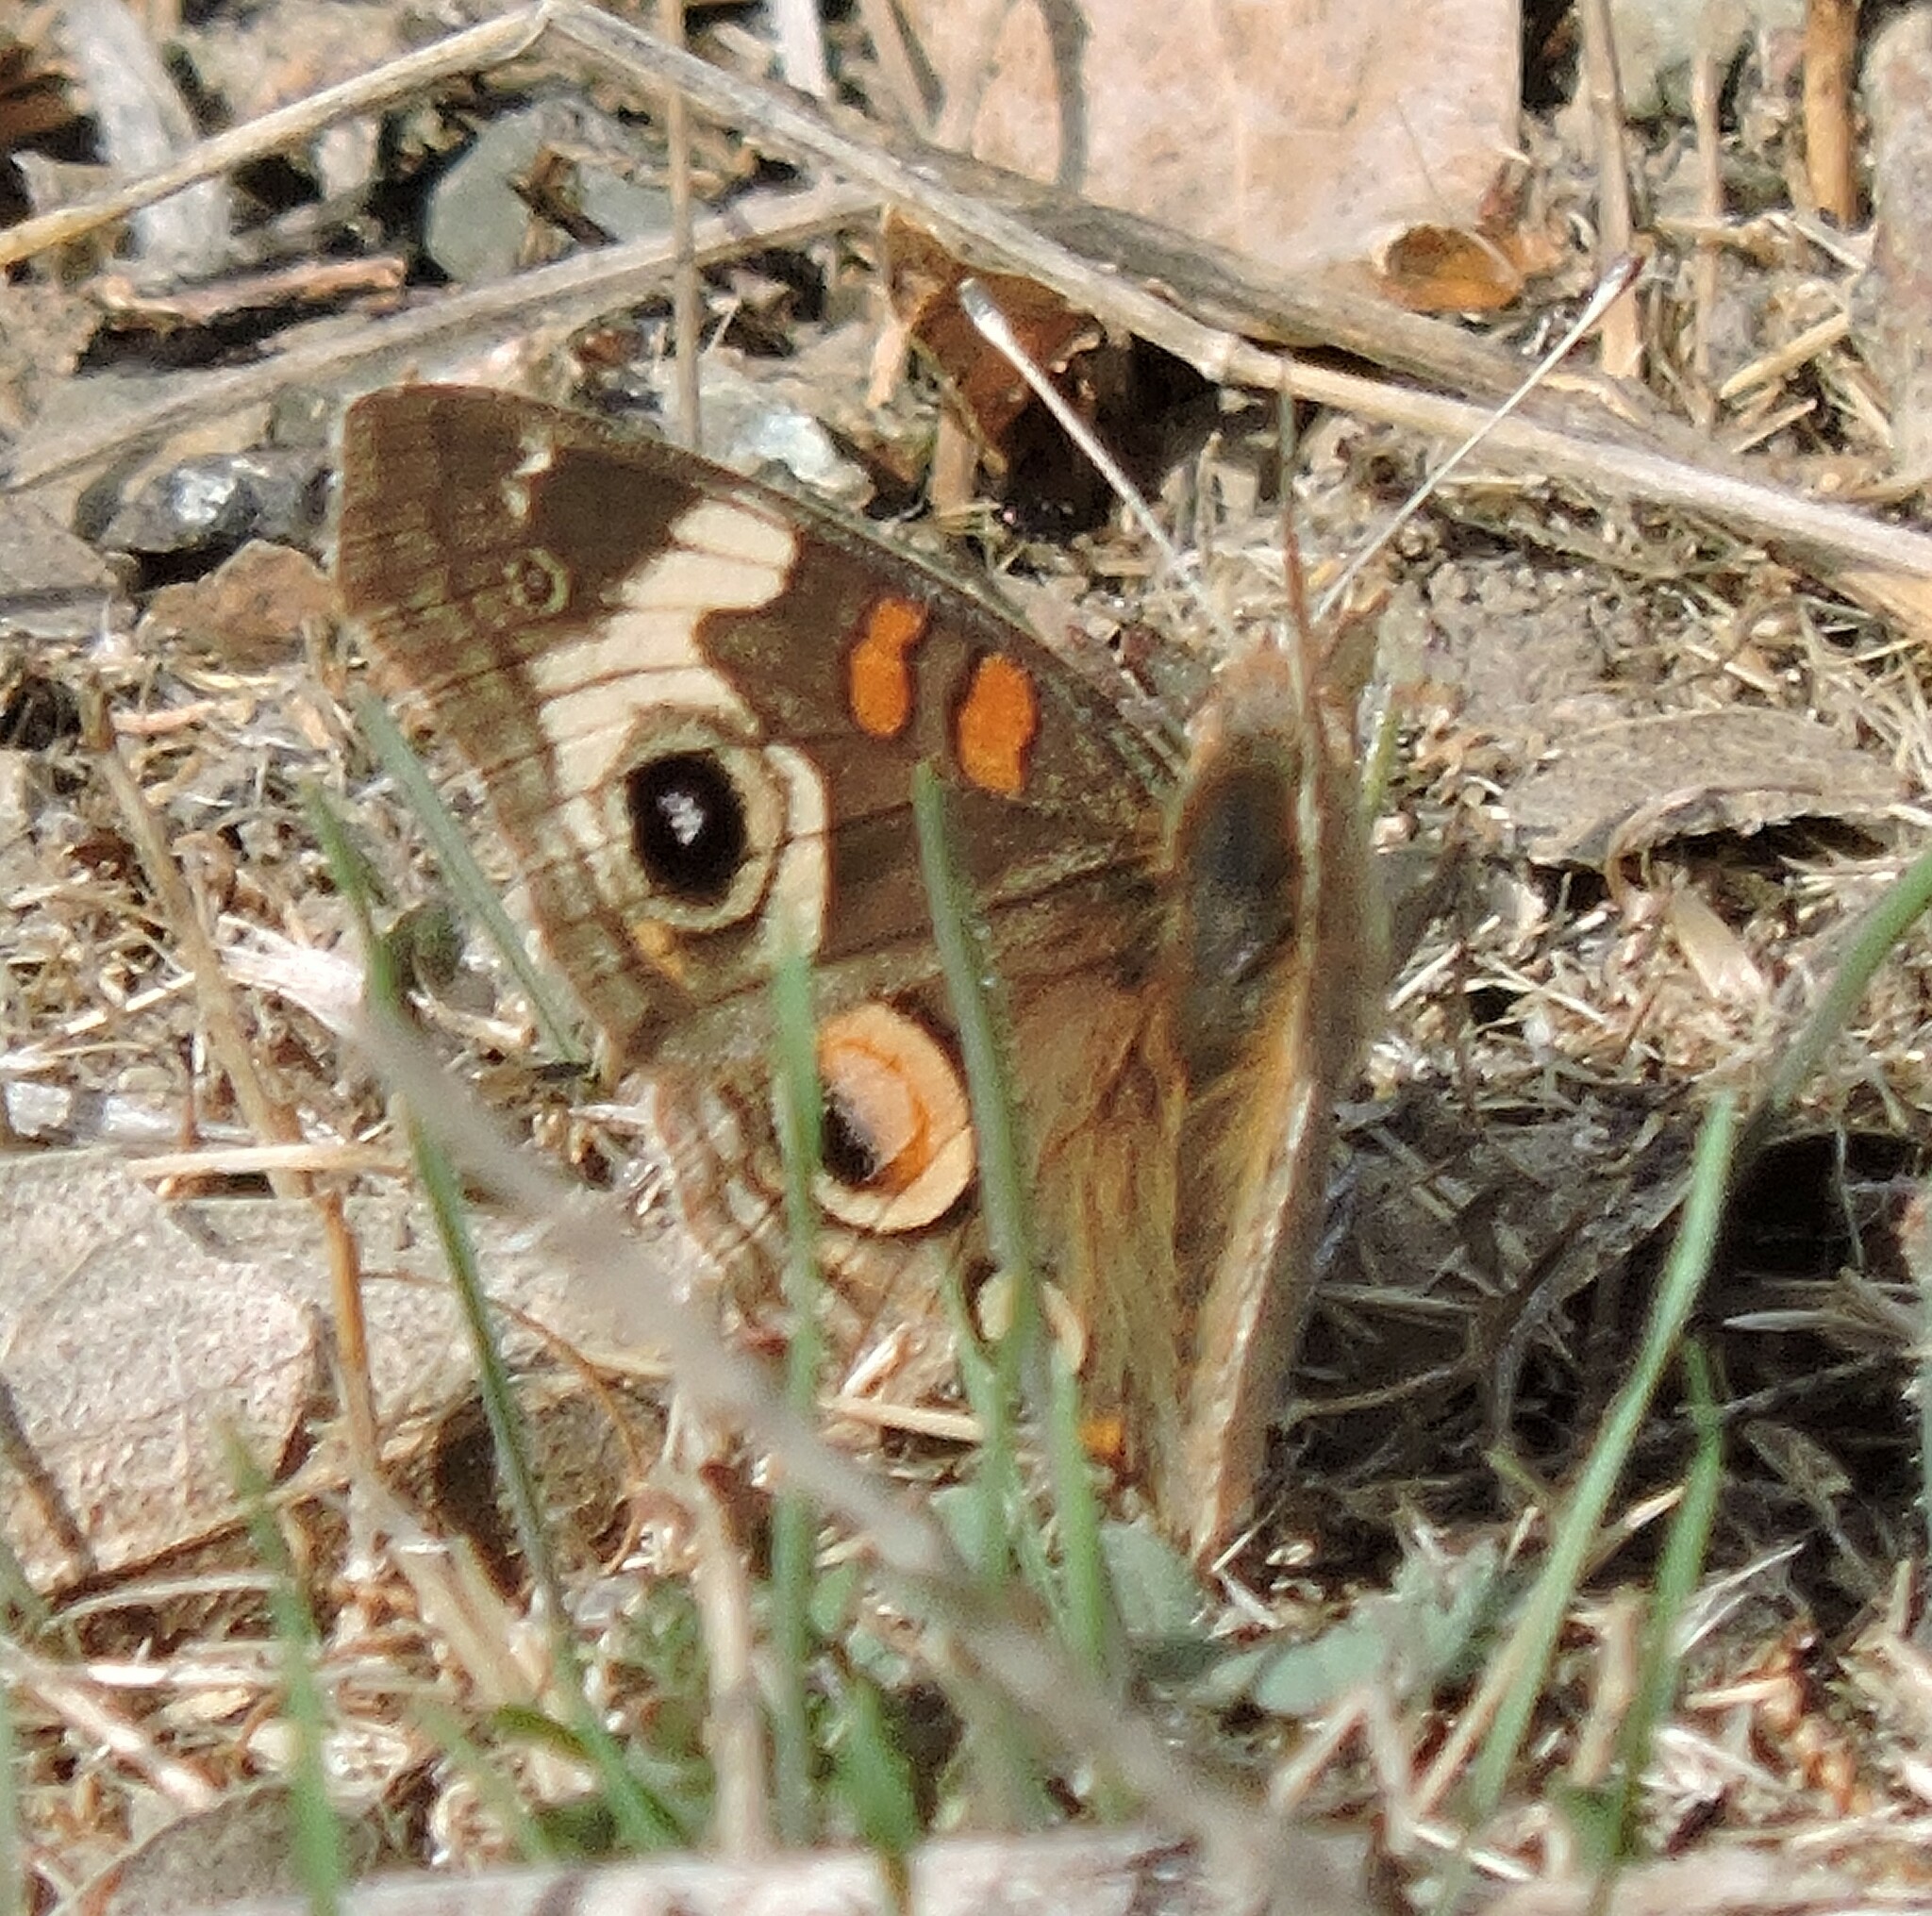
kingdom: Animalia
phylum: Arthropoda
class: Insecta
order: Lepidoptera
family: Nymphalidae
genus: Junonia
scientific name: Junonia grisea
